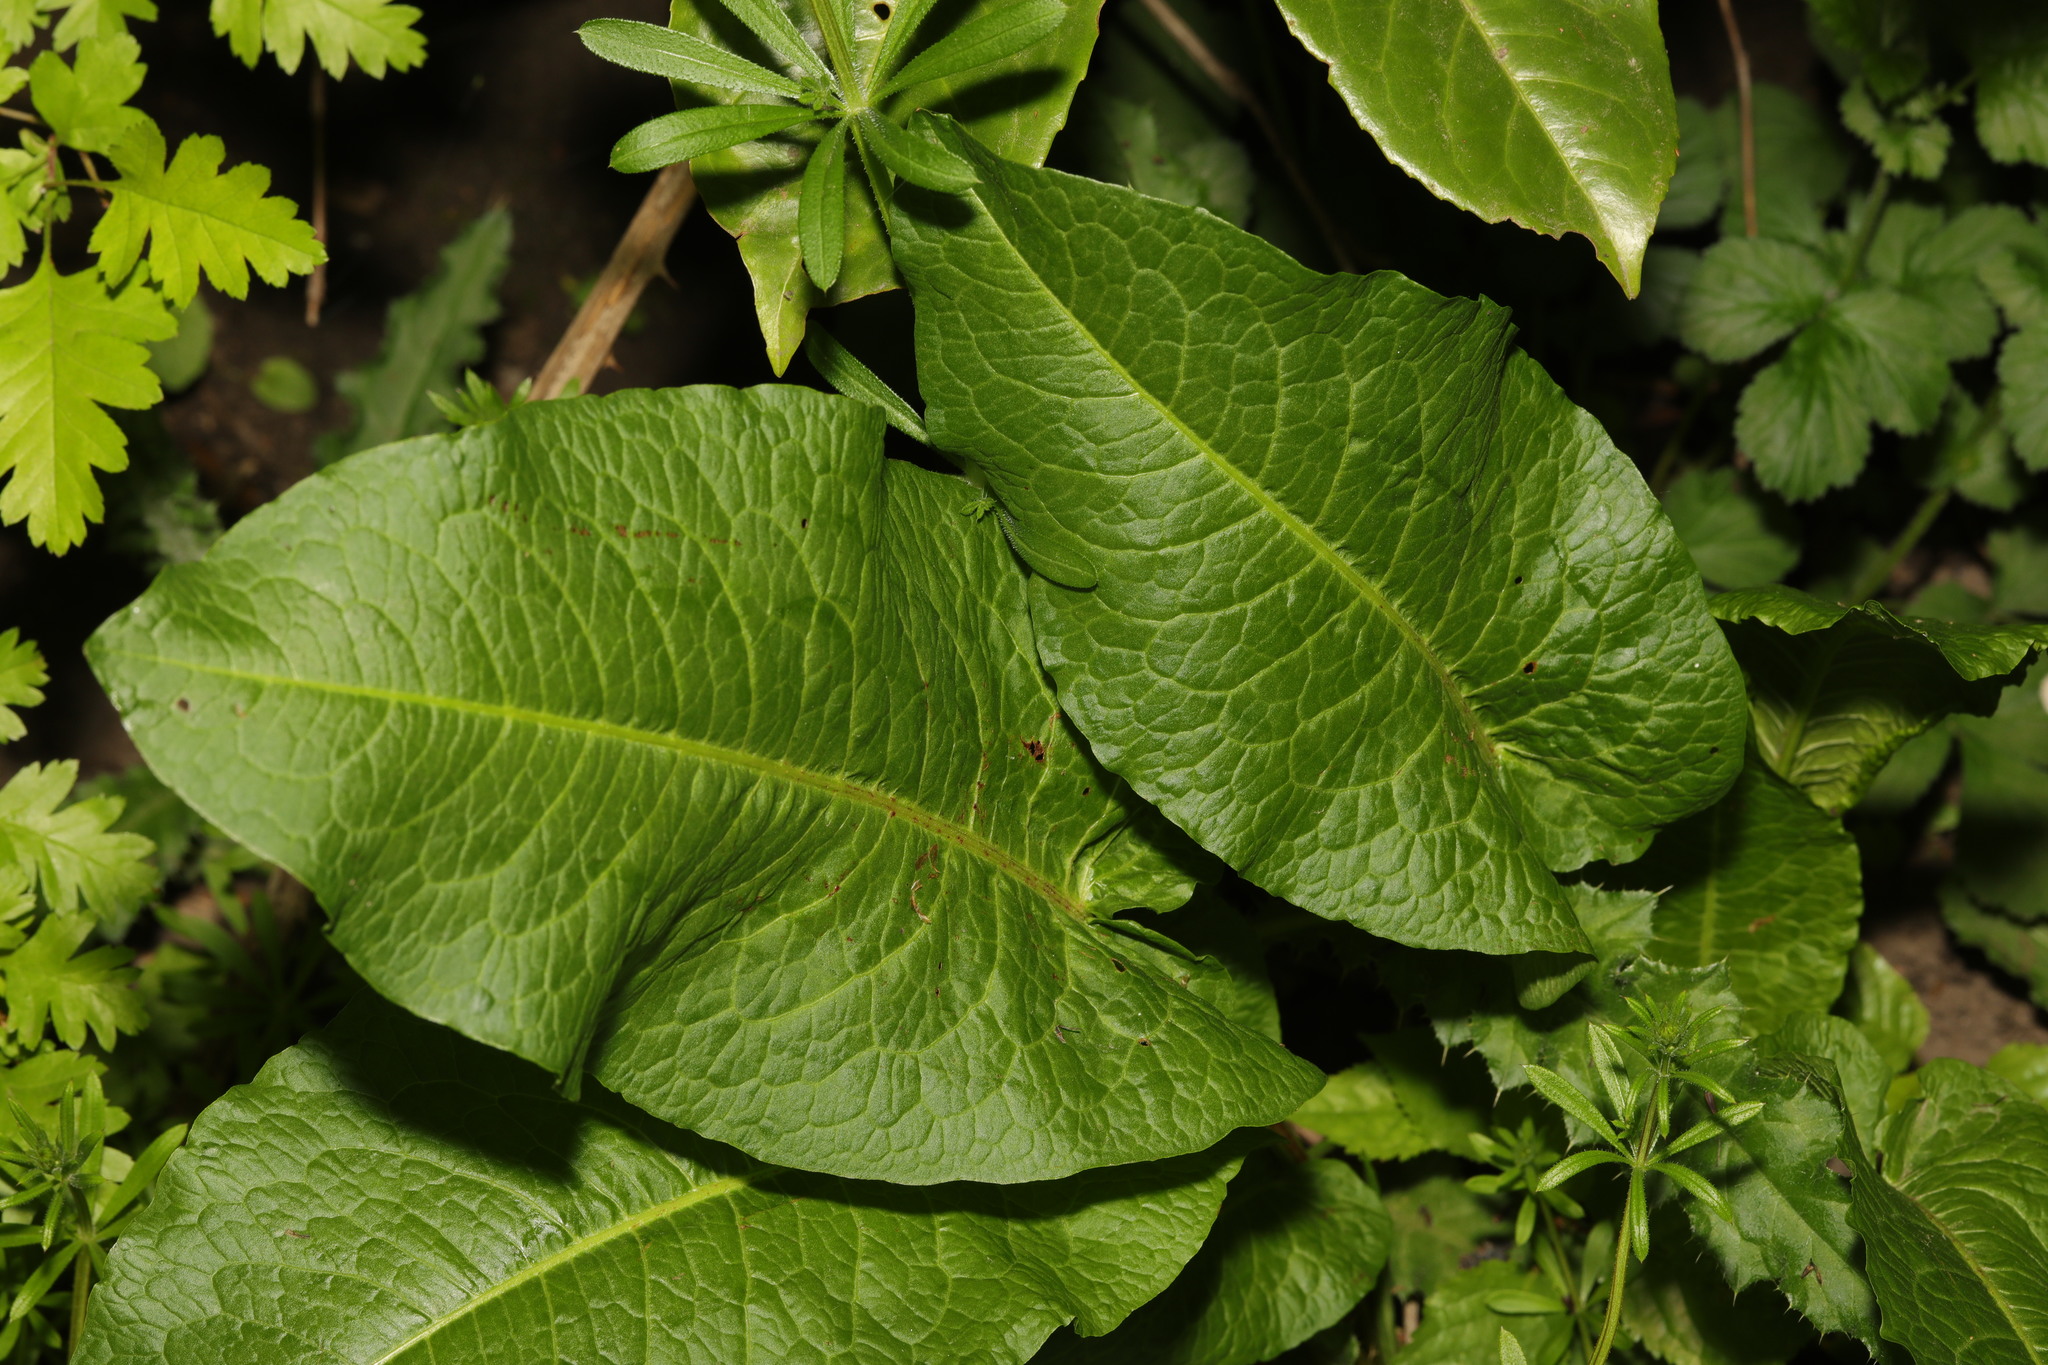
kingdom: Plantae
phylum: Tracheophyta
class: Magnoliopsida
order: Caryophyllales
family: Polygonaceae
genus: Rumex
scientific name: Rumex obtusifolius
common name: Bitter dock
